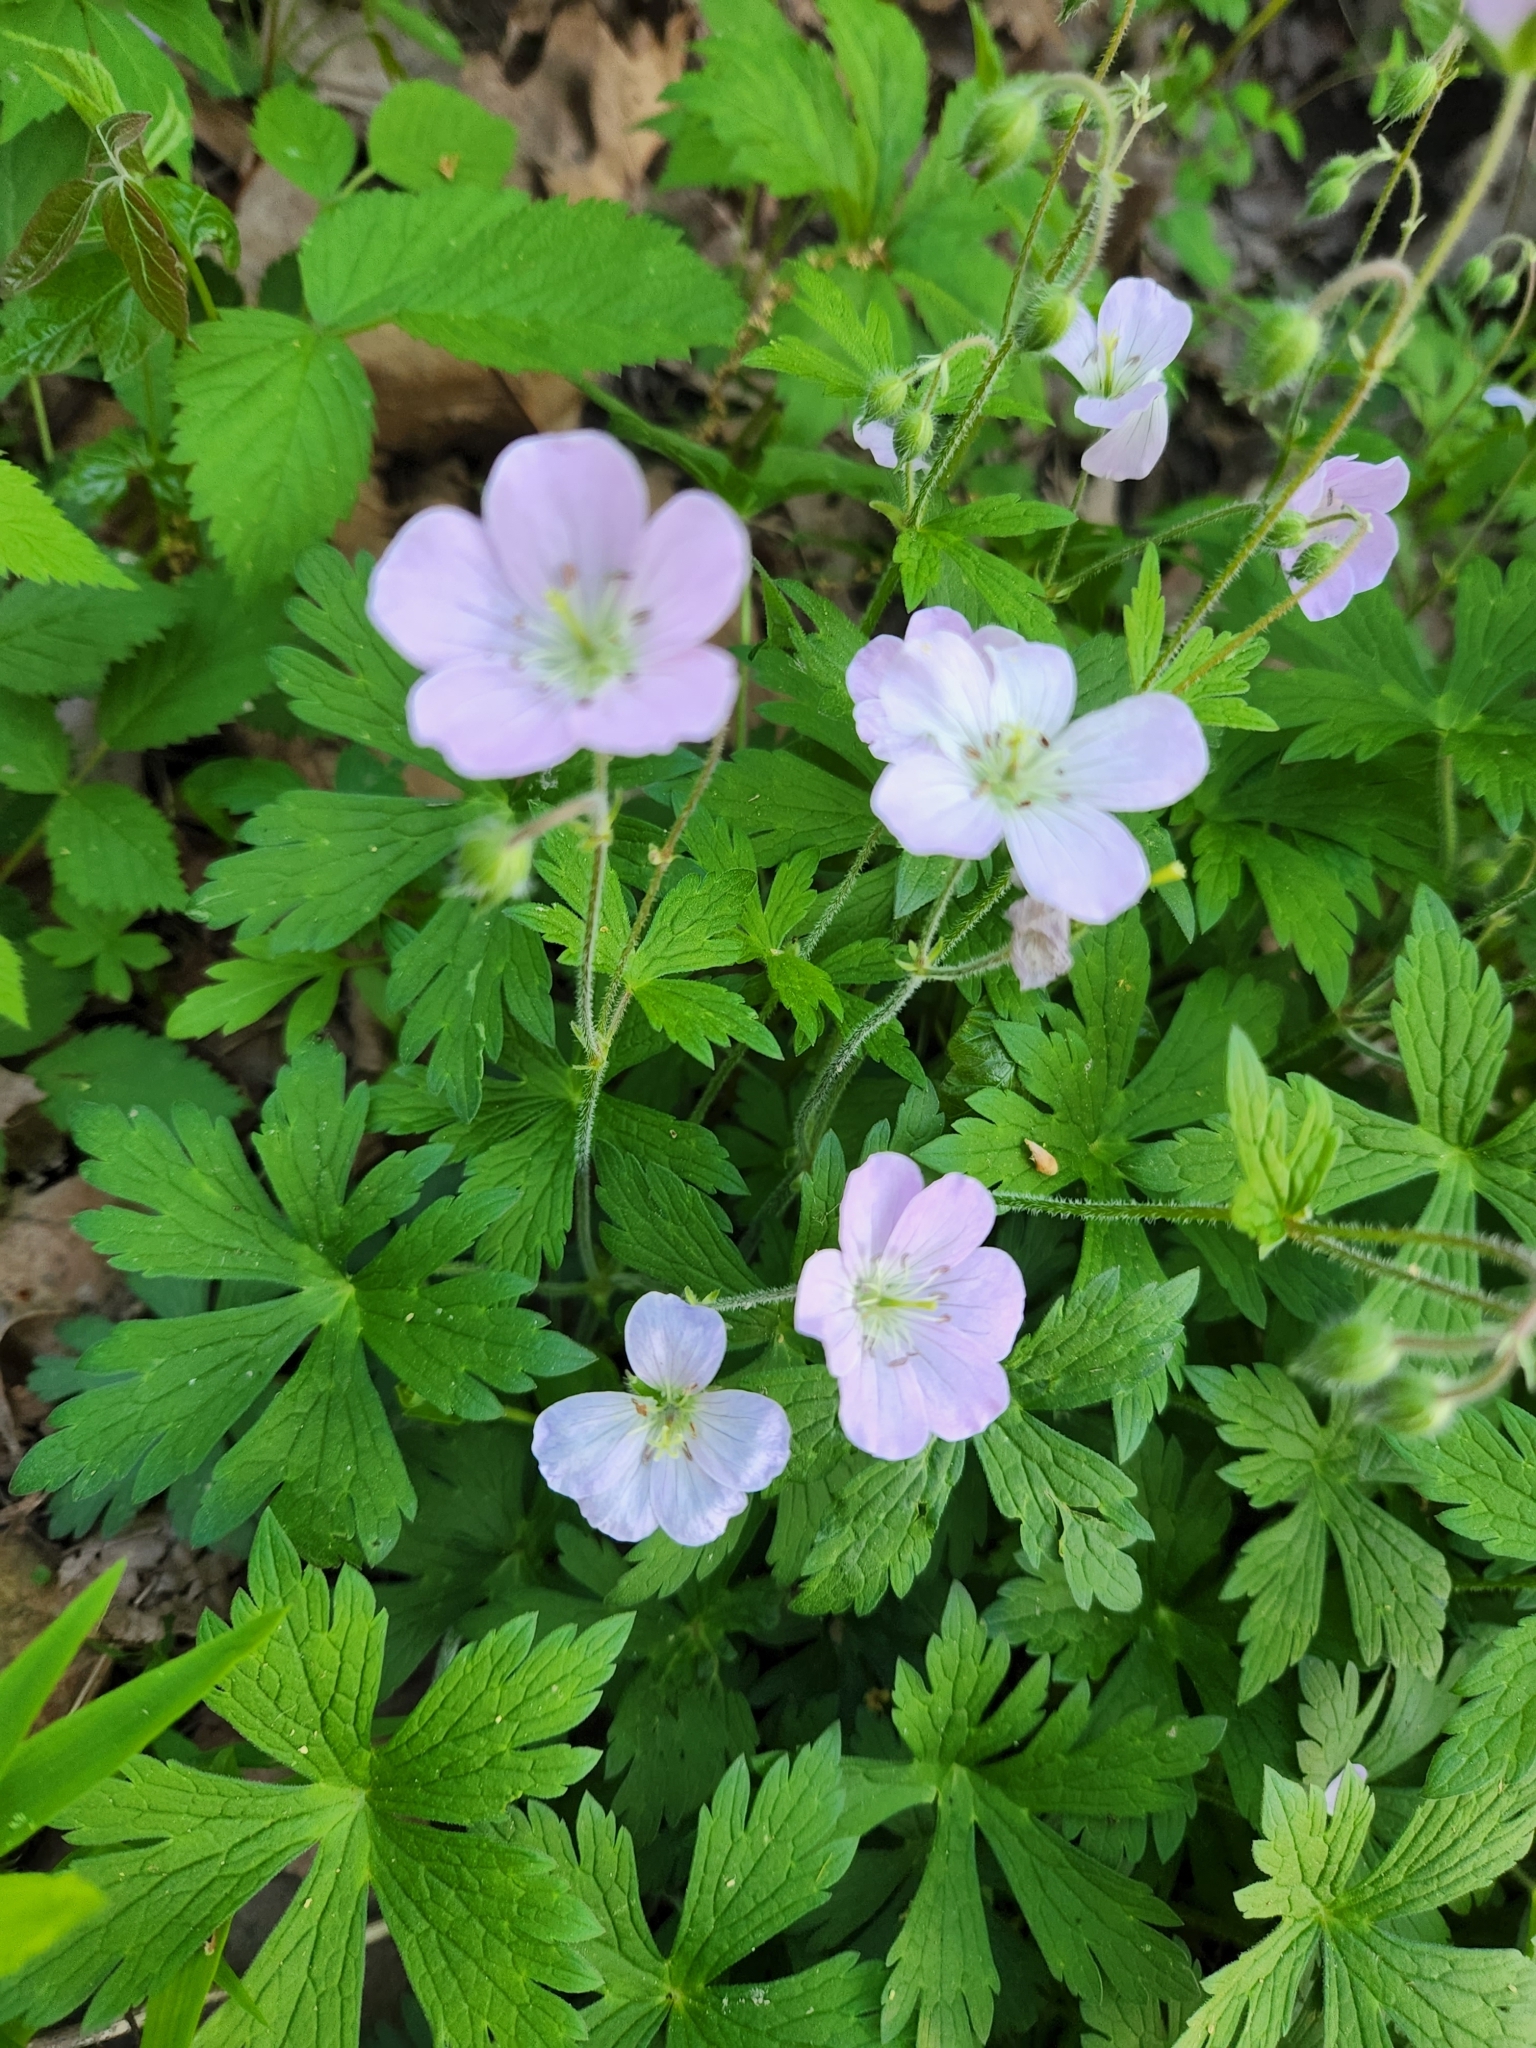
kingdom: Plantae
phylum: Tracheophyta
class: Magnoliopsida
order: Geraniales
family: Geraniaceae
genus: Geranium
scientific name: Geranium maculatum
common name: Spotted geranium
